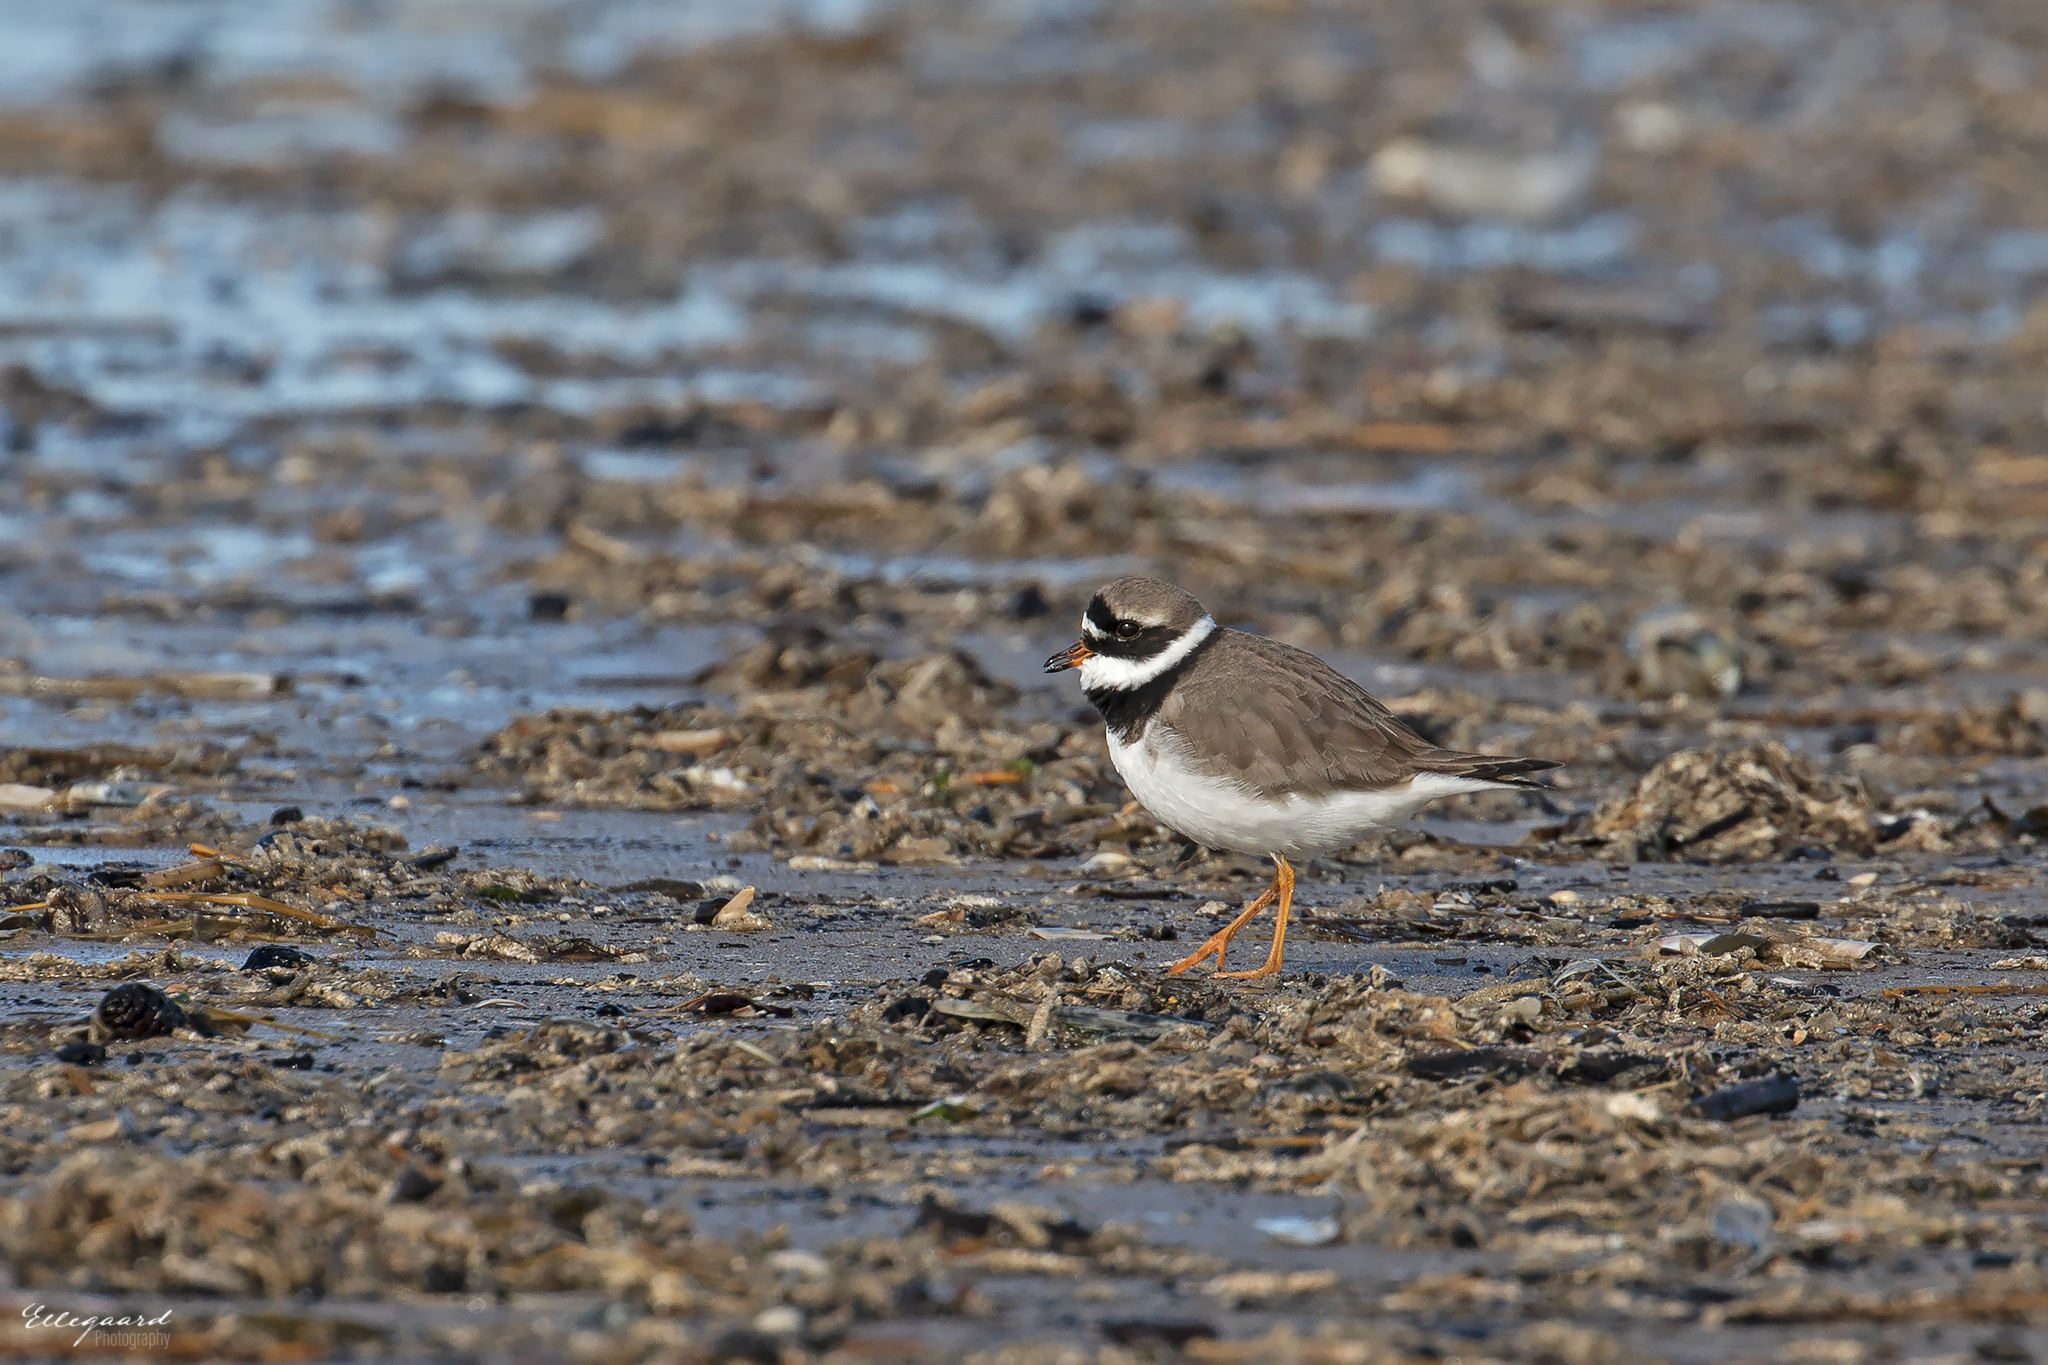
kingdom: Animalia
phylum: Chordata
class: Aves
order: Charadriiformes
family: Charadriidae
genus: Charadrius
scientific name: Charadrius hiaticula
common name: Common ringed plover
